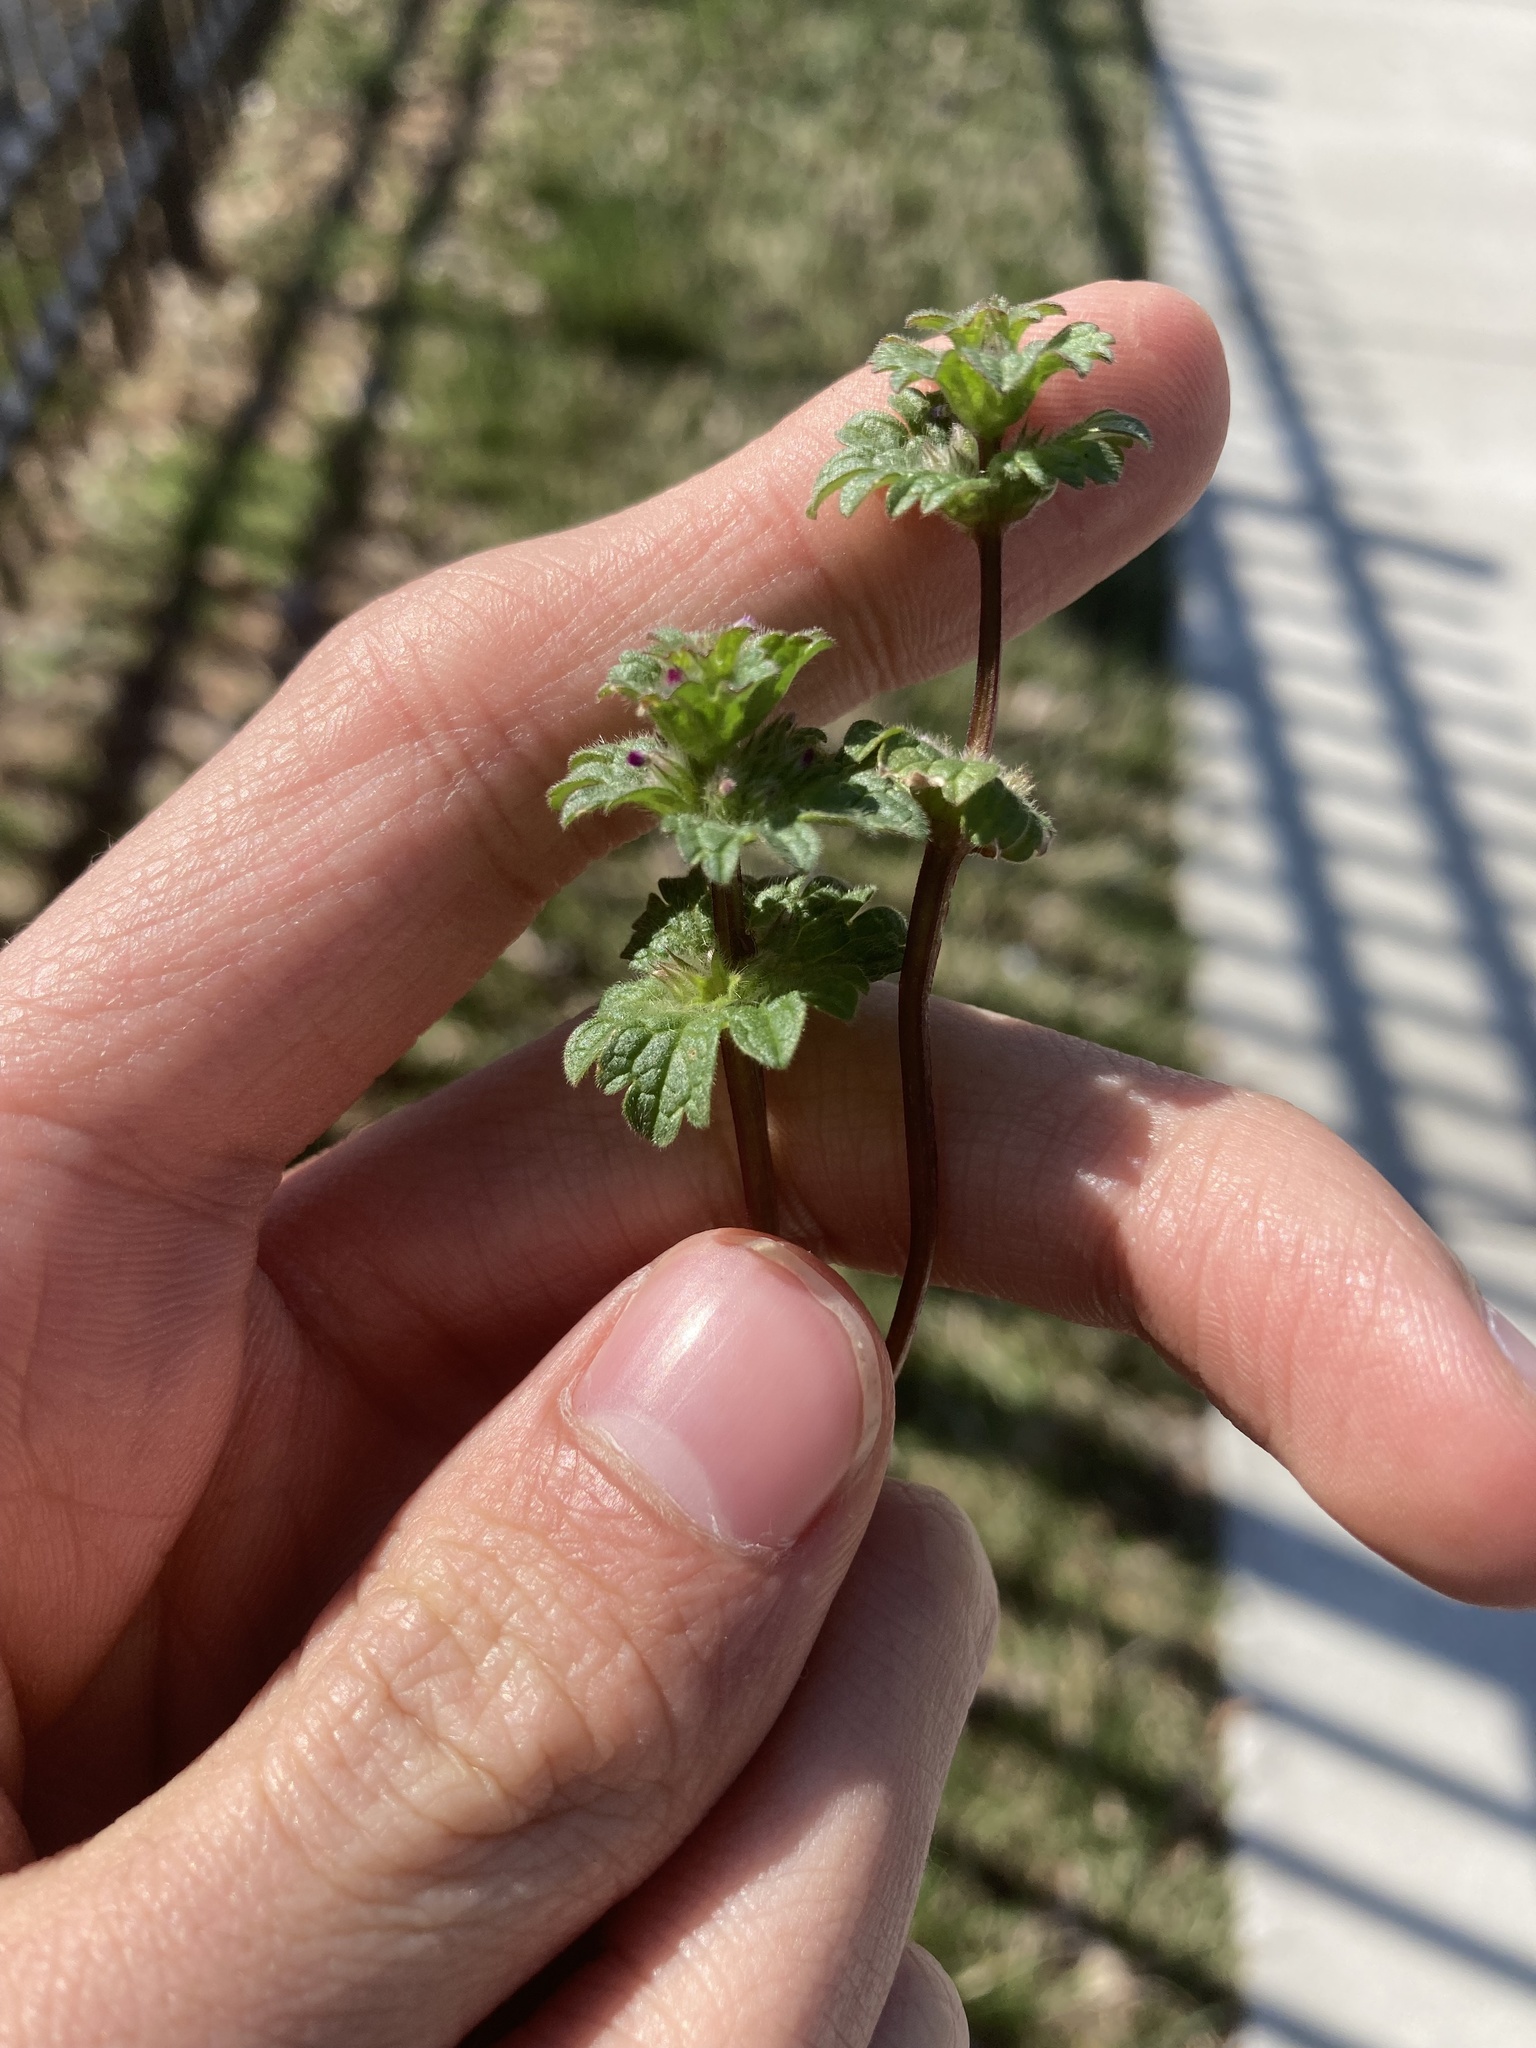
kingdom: Plantae
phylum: Tracheophyta
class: Magnoliopsida
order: Lamiales
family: Lamiaceae
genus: Lamium
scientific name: Lamium amplexicaule
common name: Henbit dead-nettle
